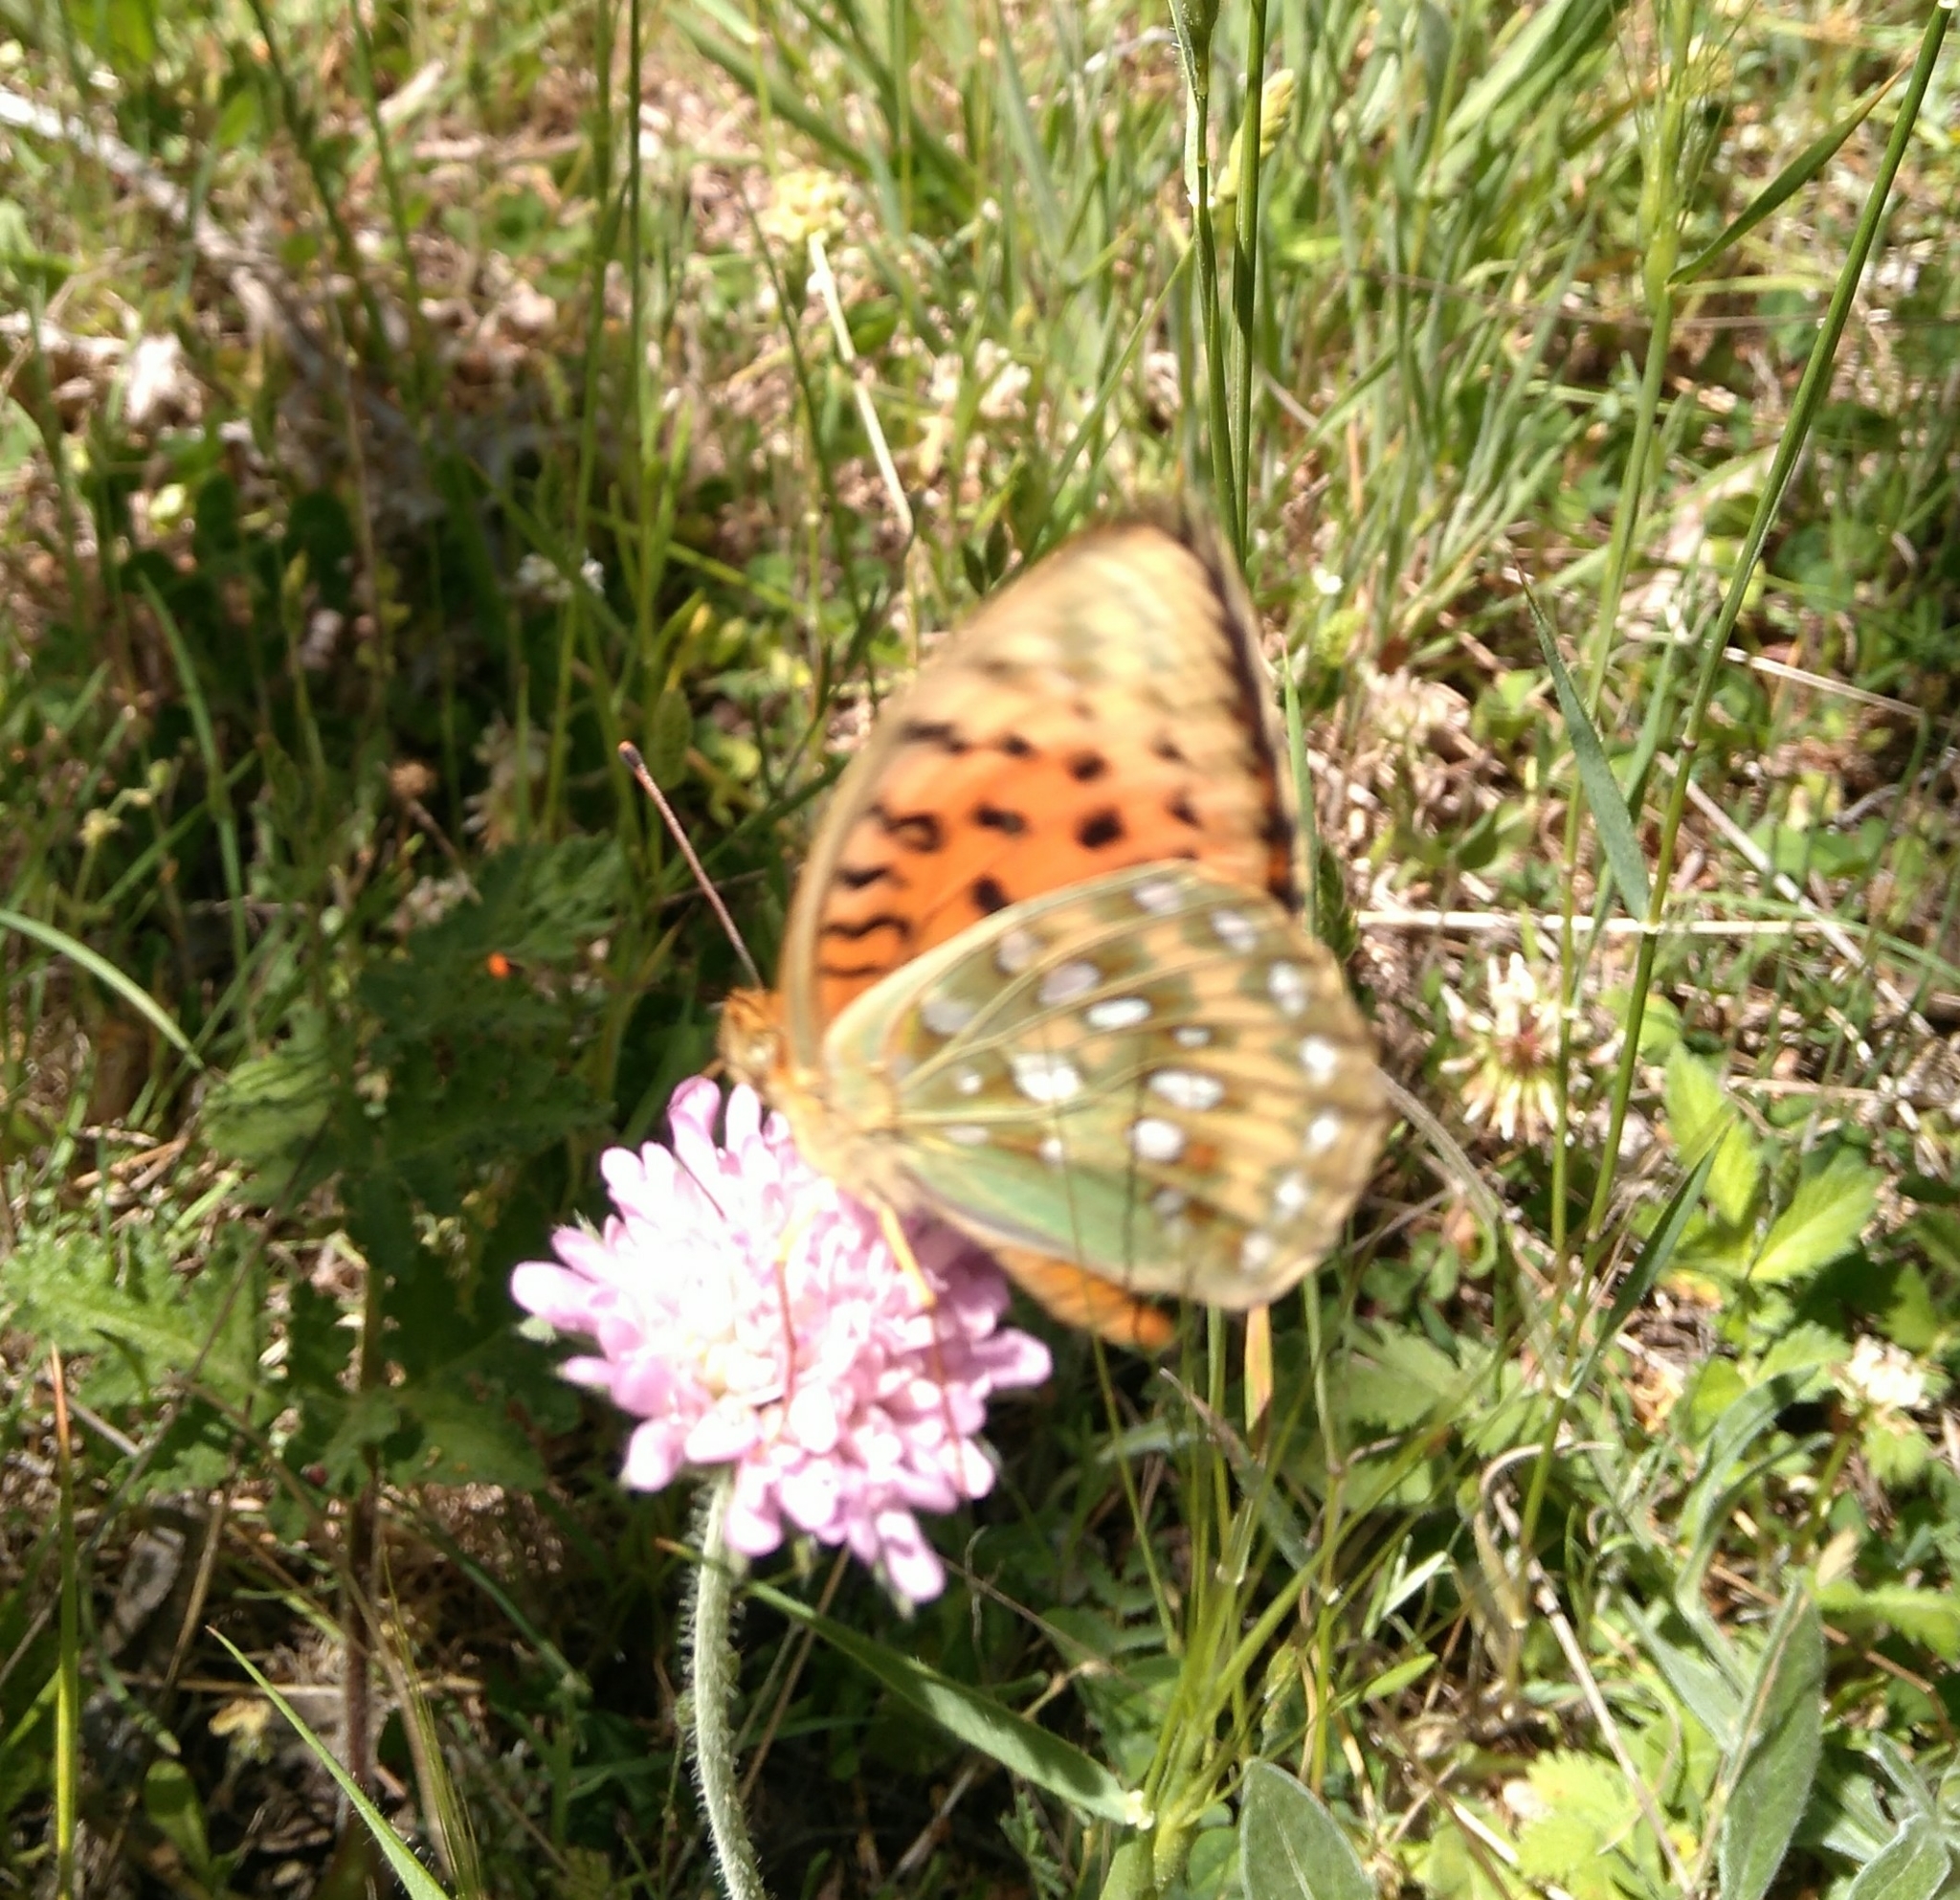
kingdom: Animalia
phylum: Arthropoda
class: Insecta
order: Lepidoptera
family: Nymphalidae
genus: Speyeria
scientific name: Speyeria aglaja
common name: Dark green fritillary
